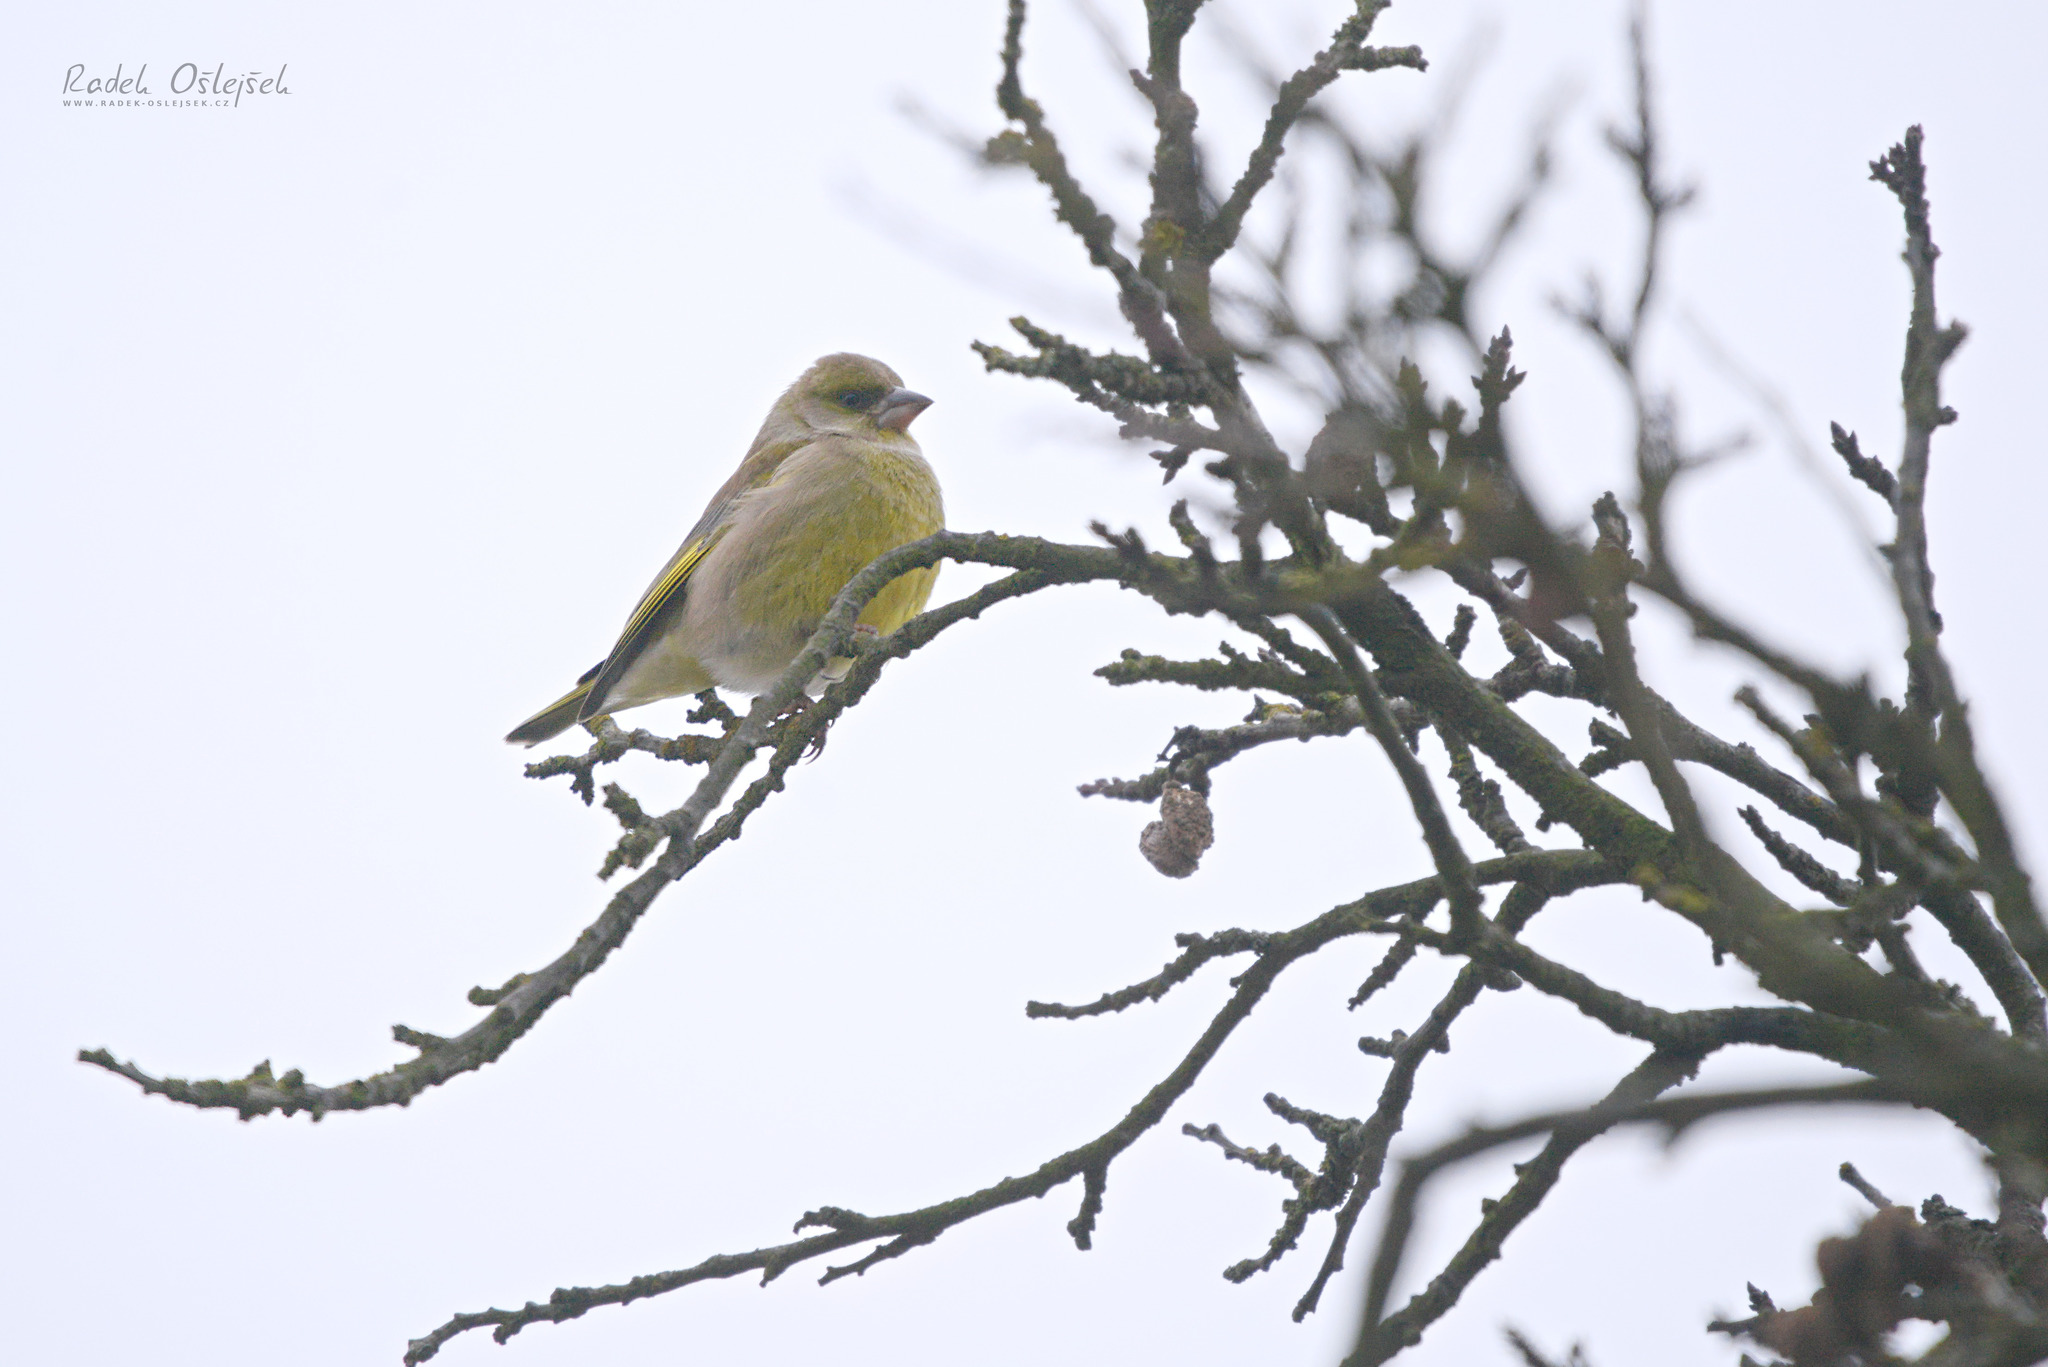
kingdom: Plantae
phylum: Tracheophyta
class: Liliopsida
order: Poales
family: Poaceae
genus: Chloris
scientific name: Chloris chloris
